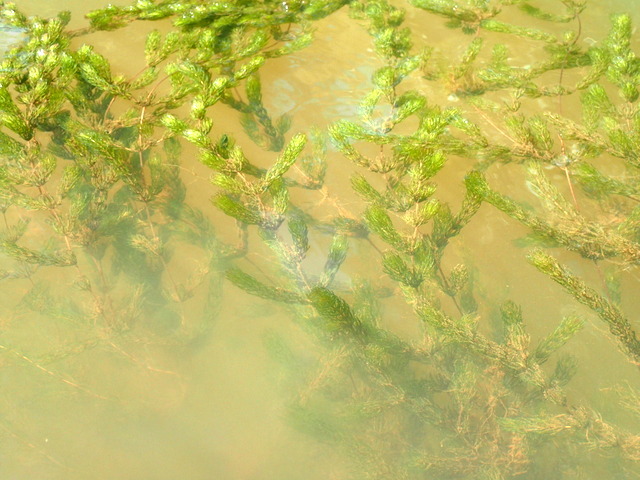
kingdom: Plantae
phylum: Tracheophyta
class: Magnoliopsida
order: Ceratophyllales
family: Ceratophyllaceae
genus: Ceratophyllum
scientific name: Ceratophyllum demersum
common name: Rigid hornwort
